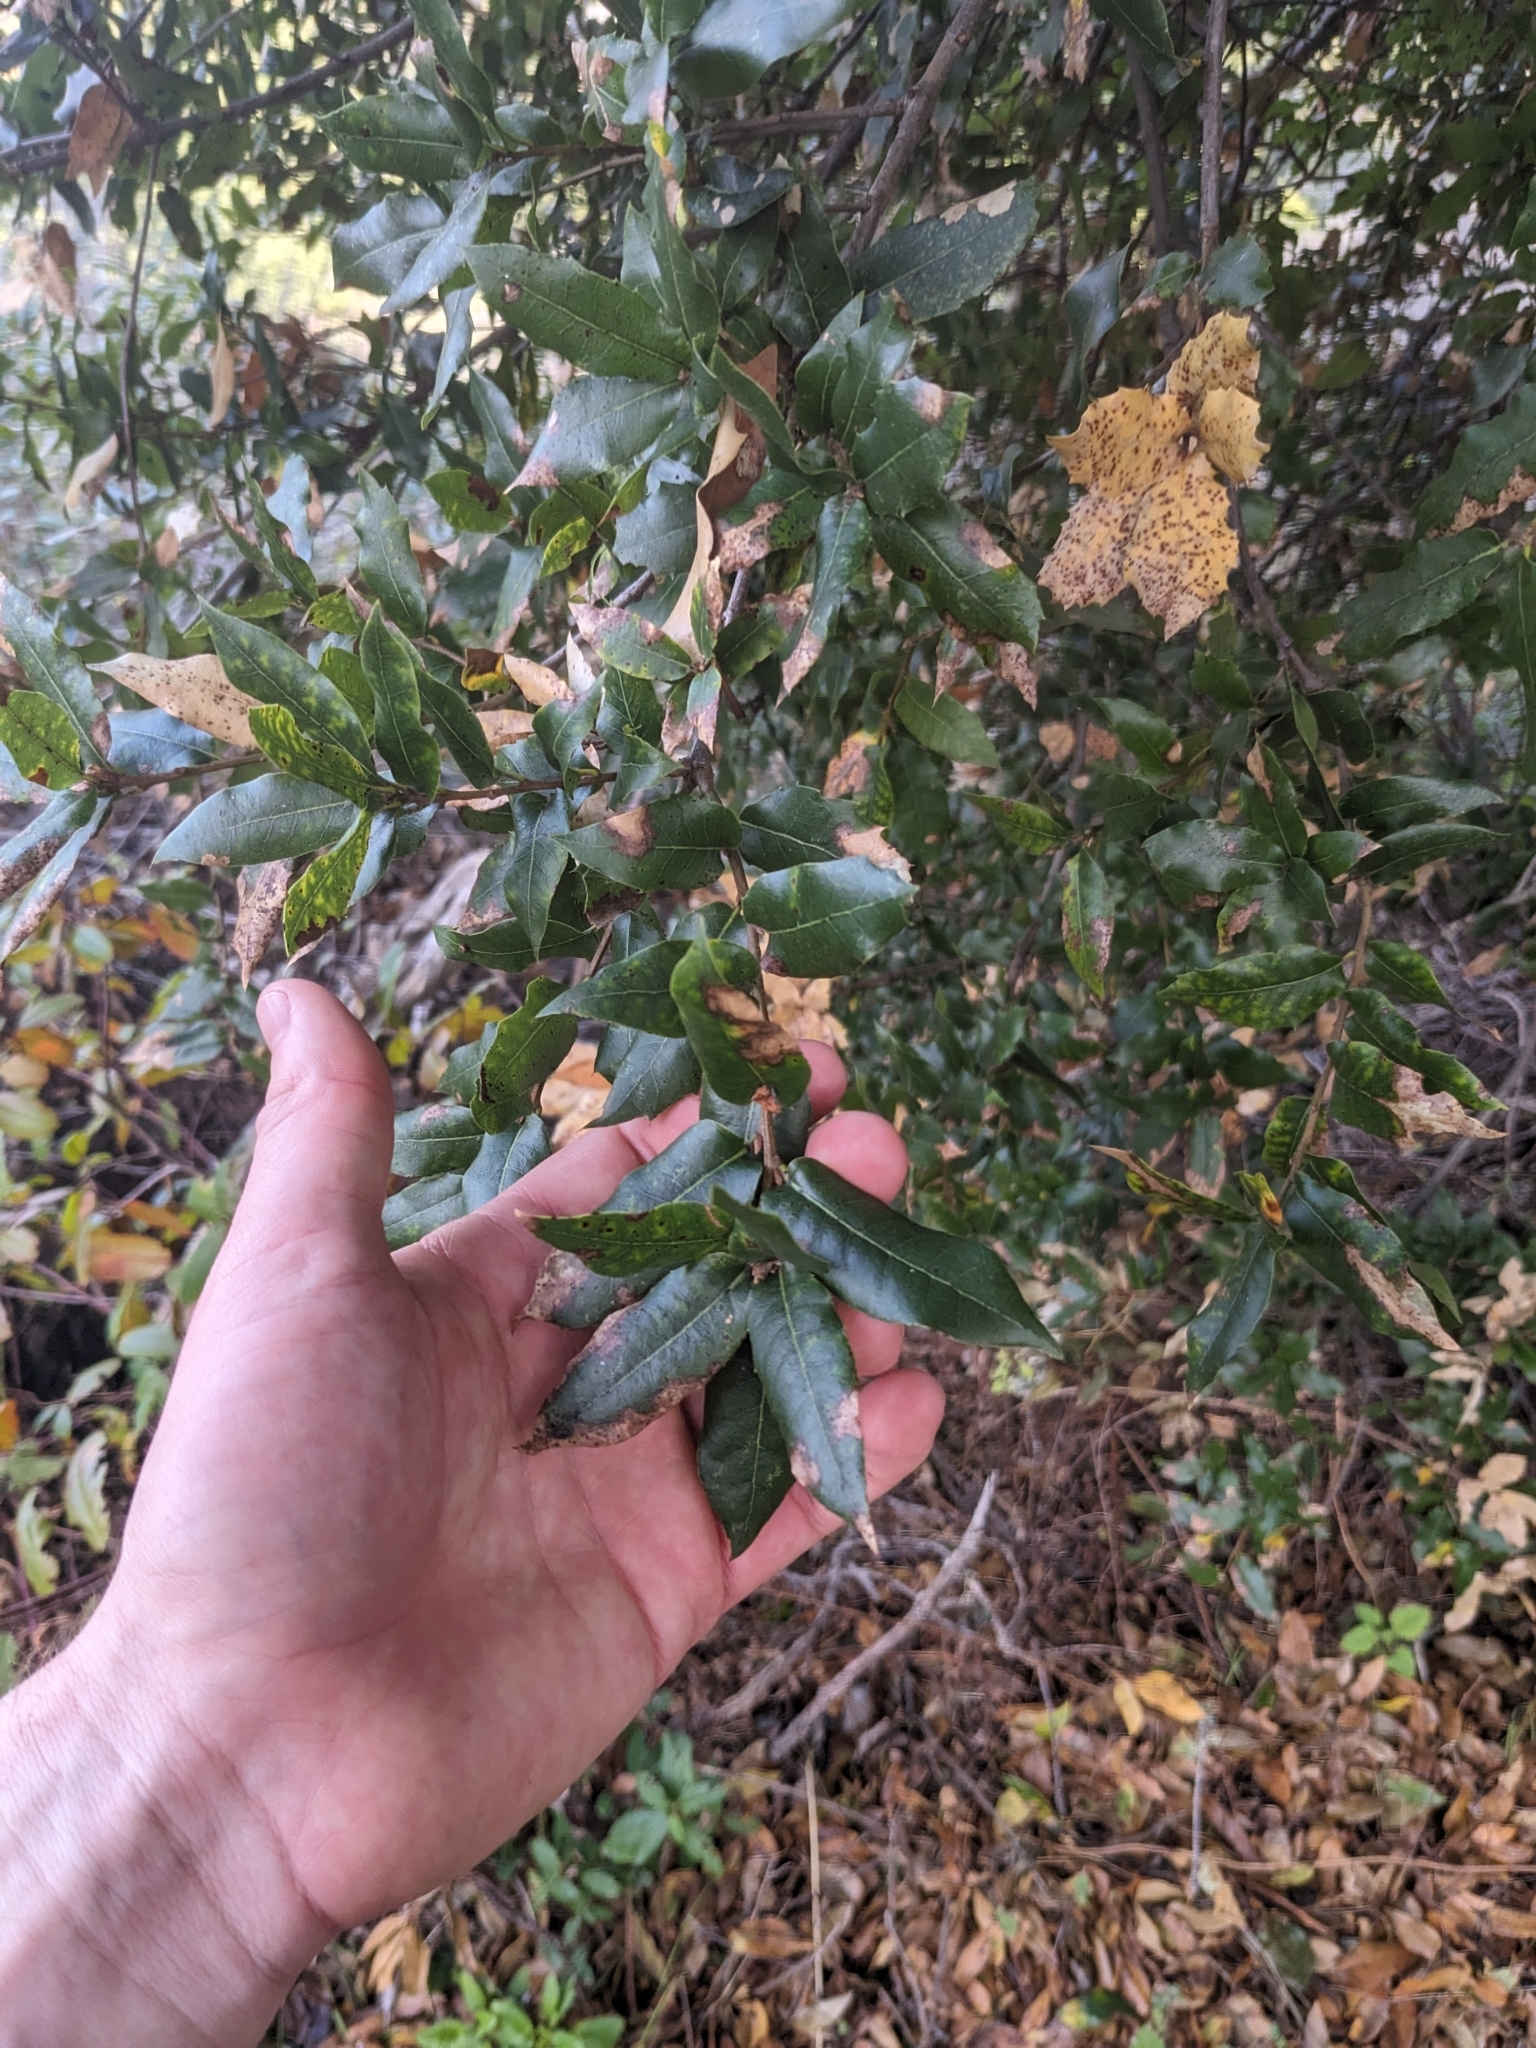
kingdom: Plantae
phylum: Tracheophyta
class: Magnoliopsida
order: Fagales
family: Fagaceae
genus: Quercus
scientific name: Quercus parvula
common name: Santa cruz island oak
